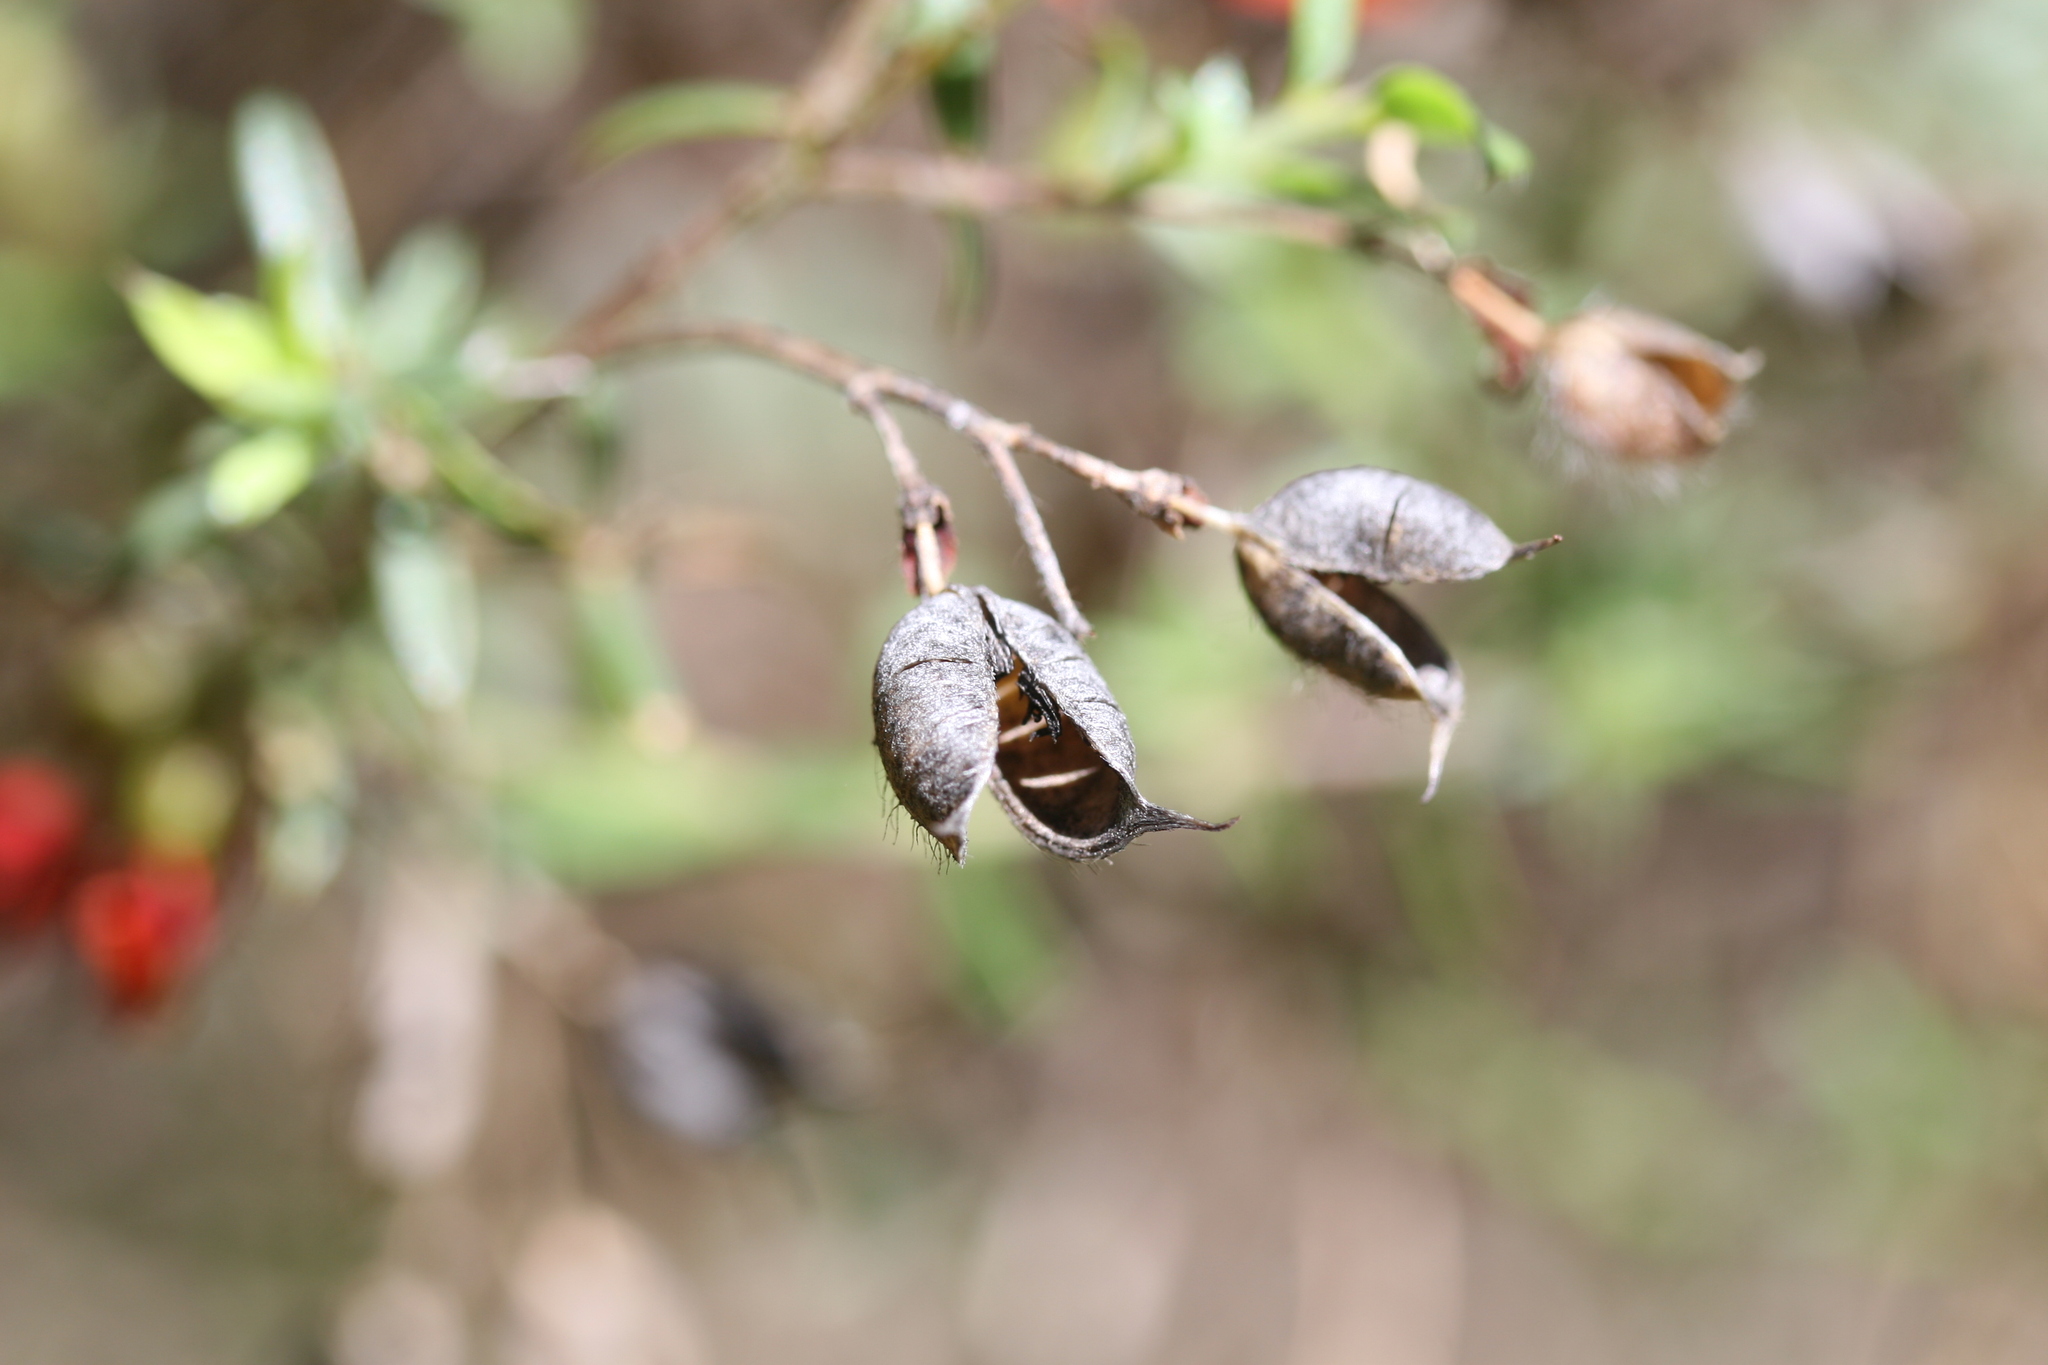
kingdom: Plantae
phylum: Tracheophyta
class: Magnoliopsida
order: Fabales
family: Fabaceae
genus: Chorizema
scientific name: Chorizema dicksonii
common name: Yellow-eyed flame-pea
